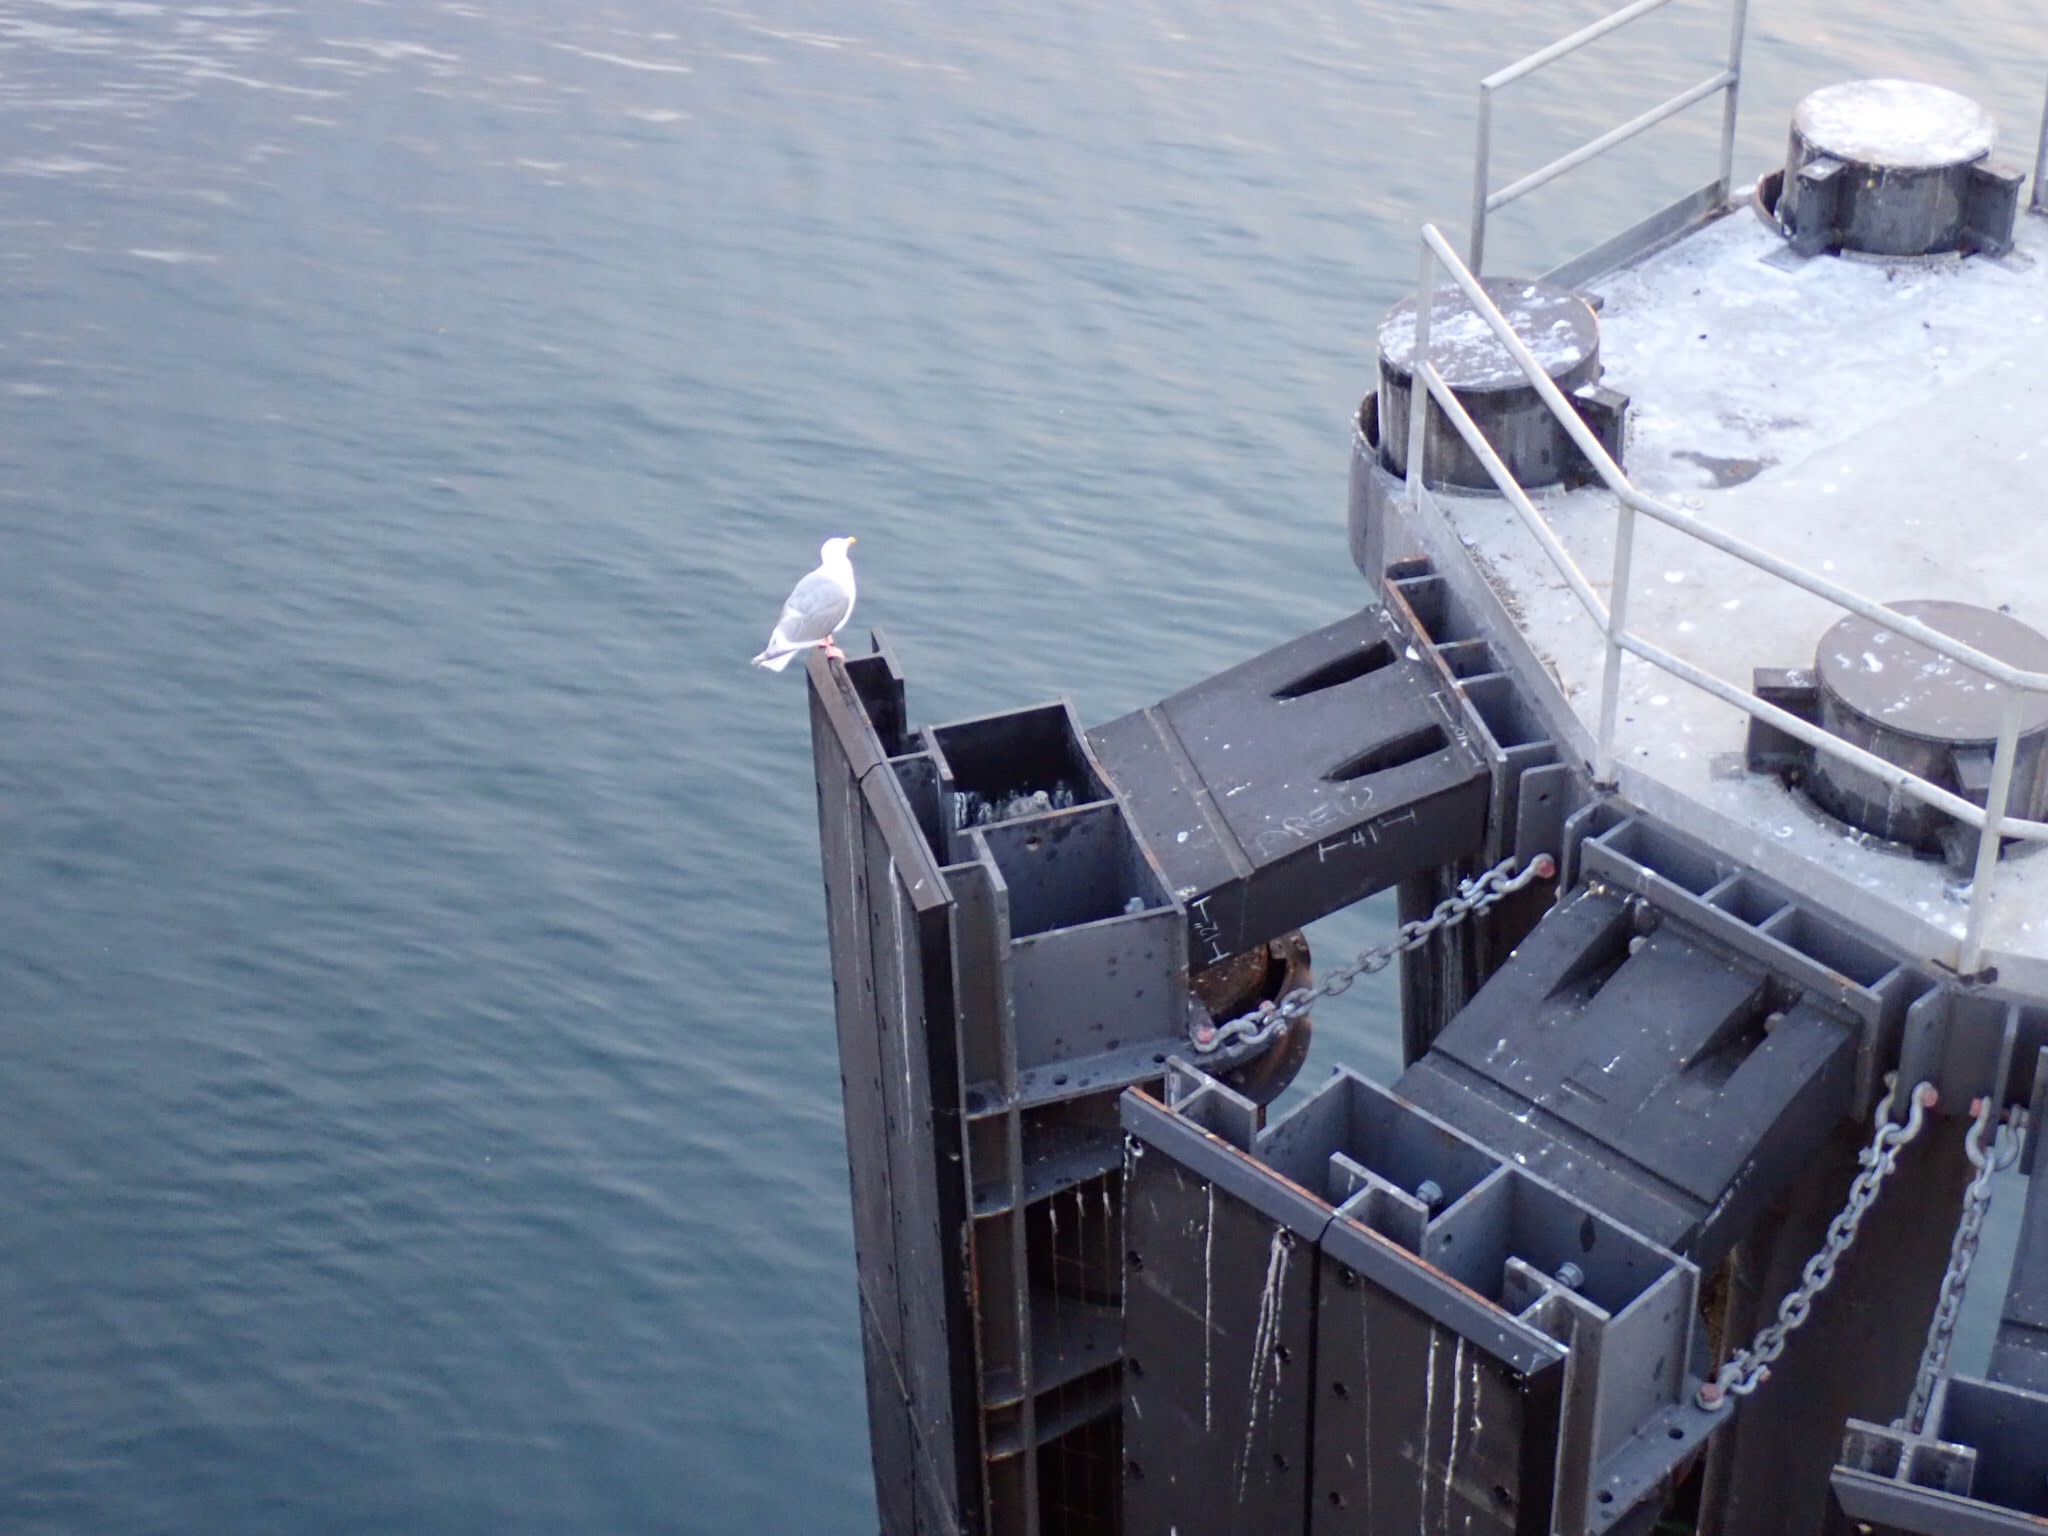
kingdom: Animalia
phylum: Chordata
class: Aves
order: Charadriiformes
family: Laridae
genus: Larus
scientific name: Larus glaucescens
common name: Glaucous-winged gull
